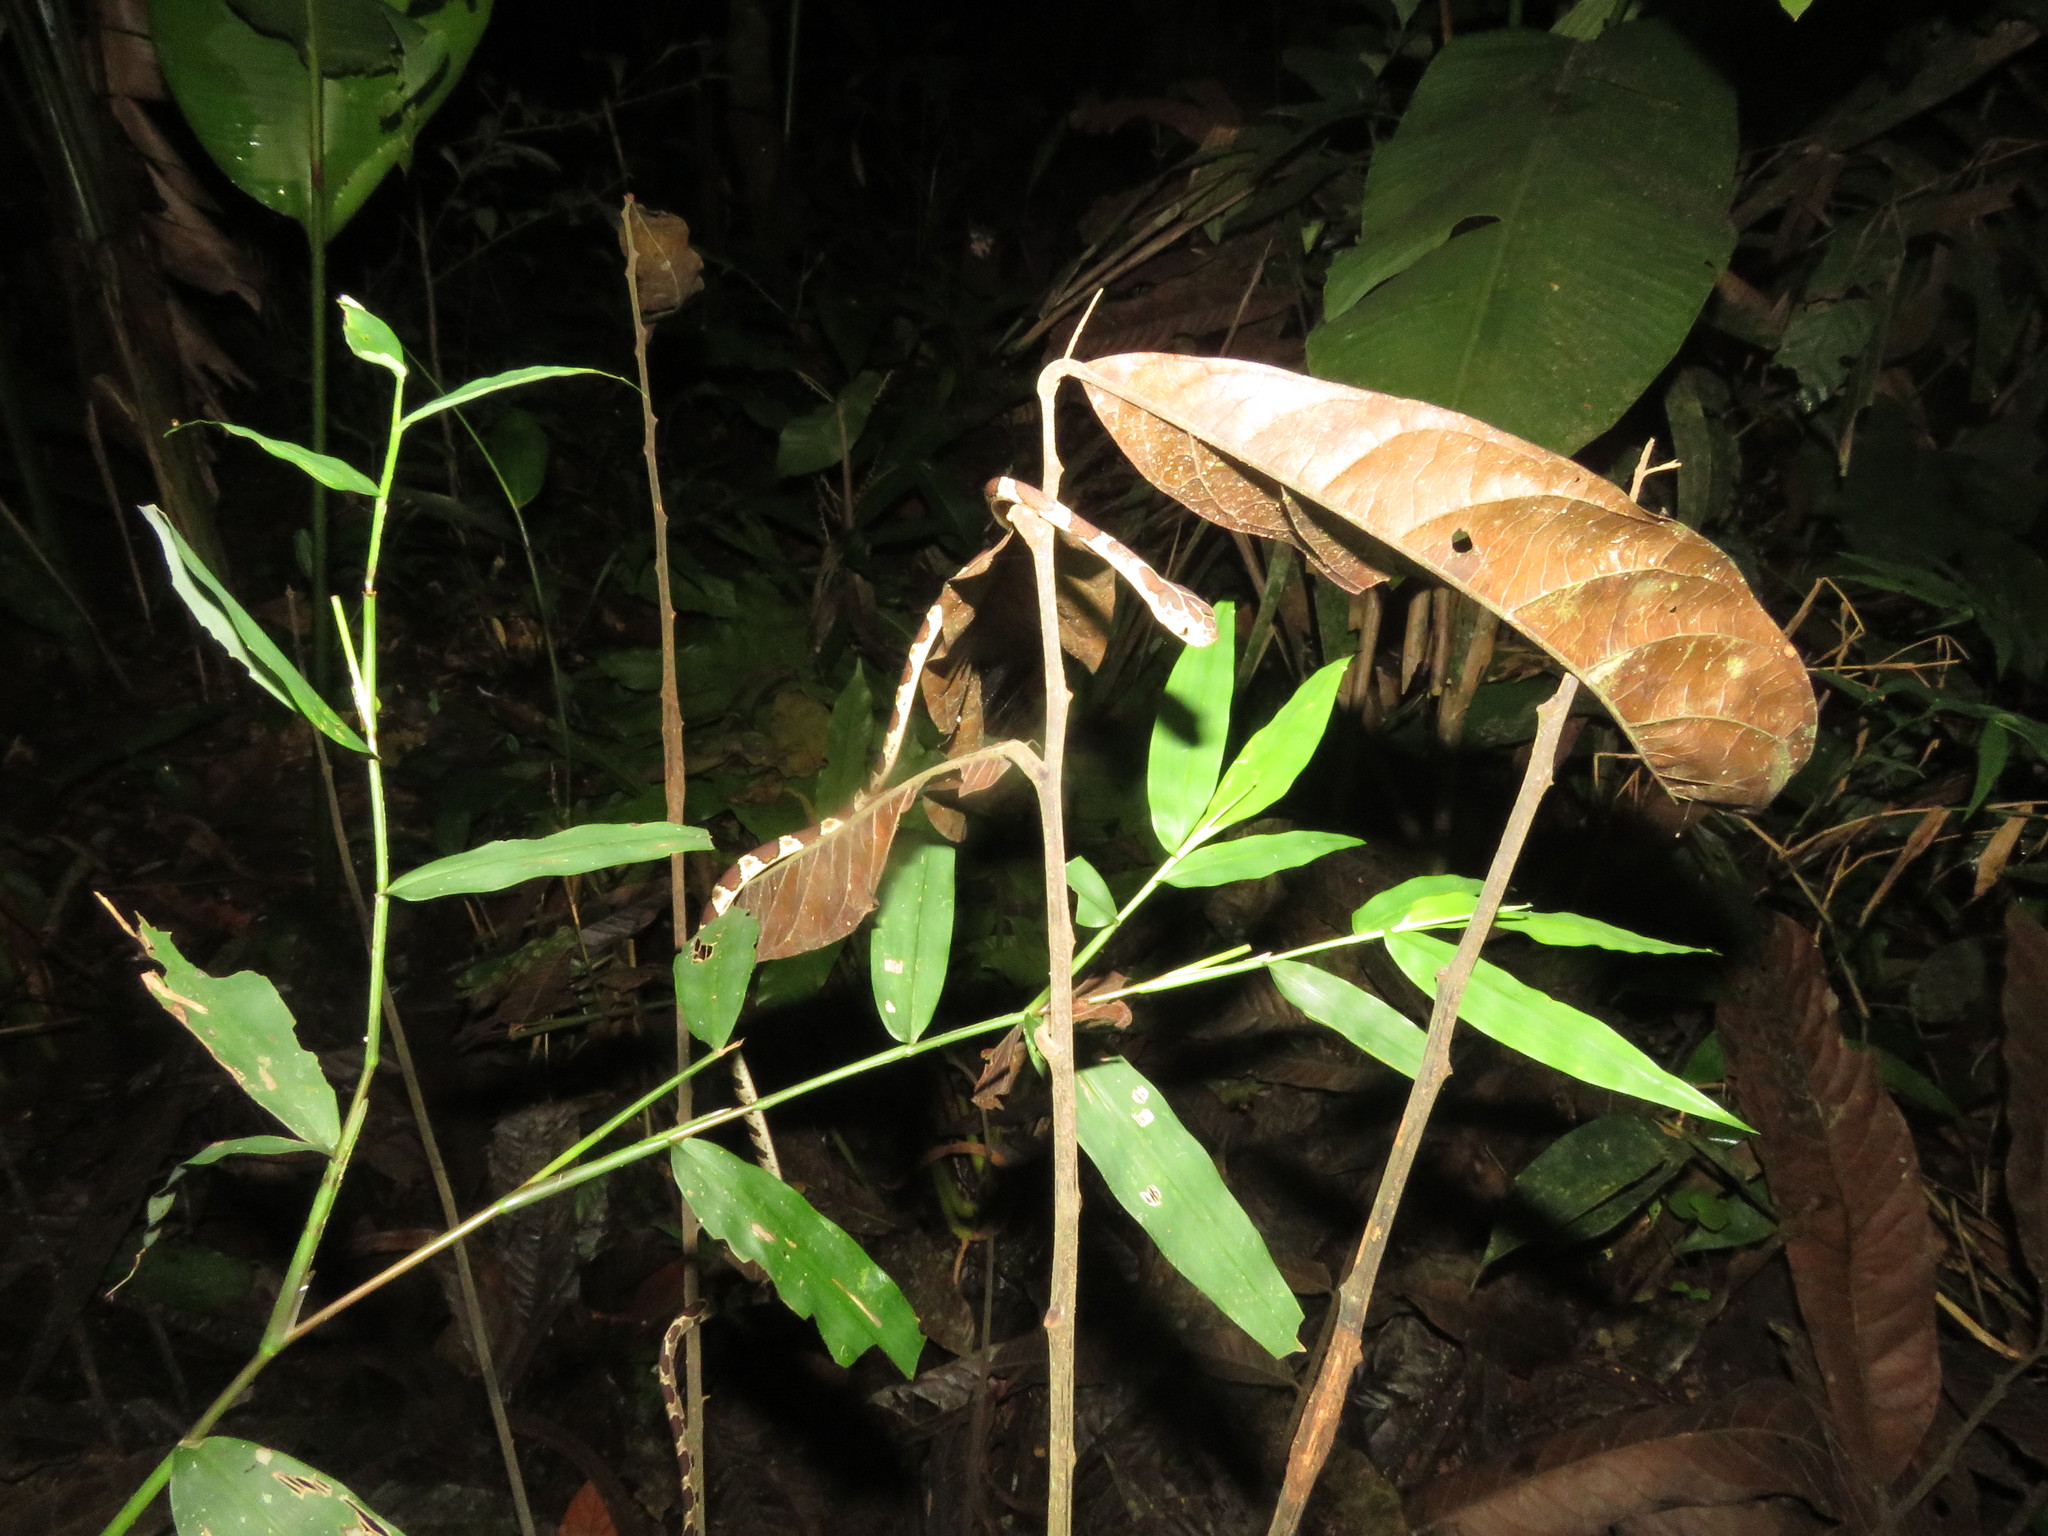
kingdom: Animalia
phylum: Chordata
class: Squamata
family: Colubridae
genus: Imantodes
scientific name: Imantodes cenchoa
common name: Blunthead tree snake
